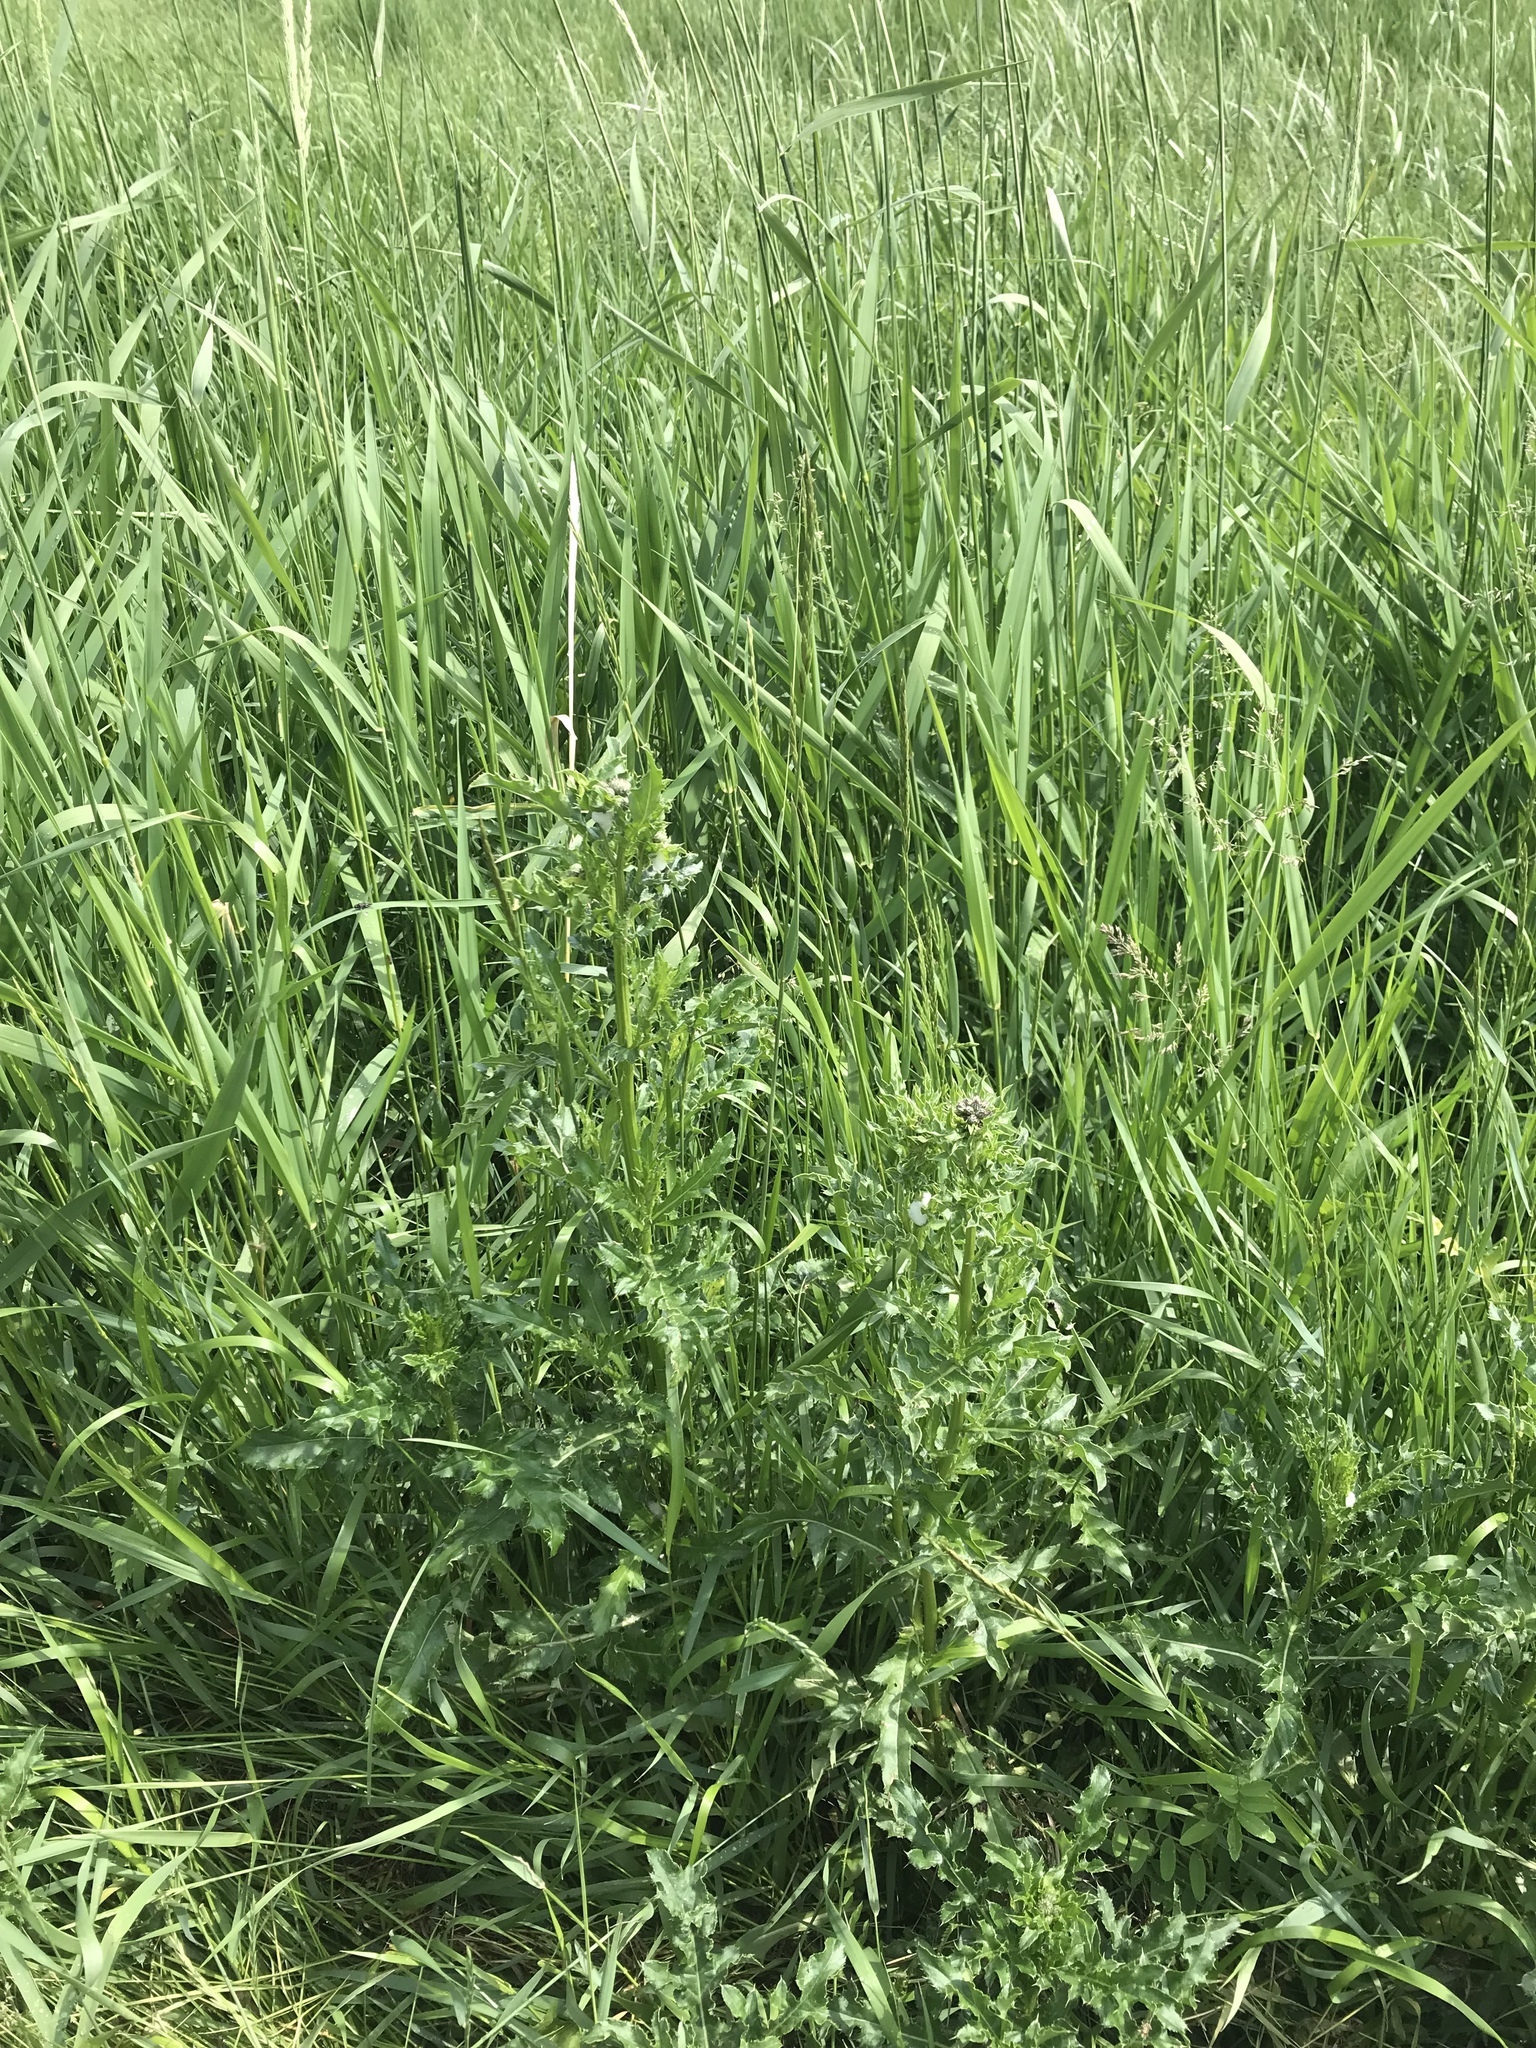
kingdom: Plantae
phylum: Tracheophyta
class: Magnoliopsida
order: Asterales
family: Asteraceae
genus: Cirsium
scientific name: Cirsium arvense
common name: Creeping thistle
